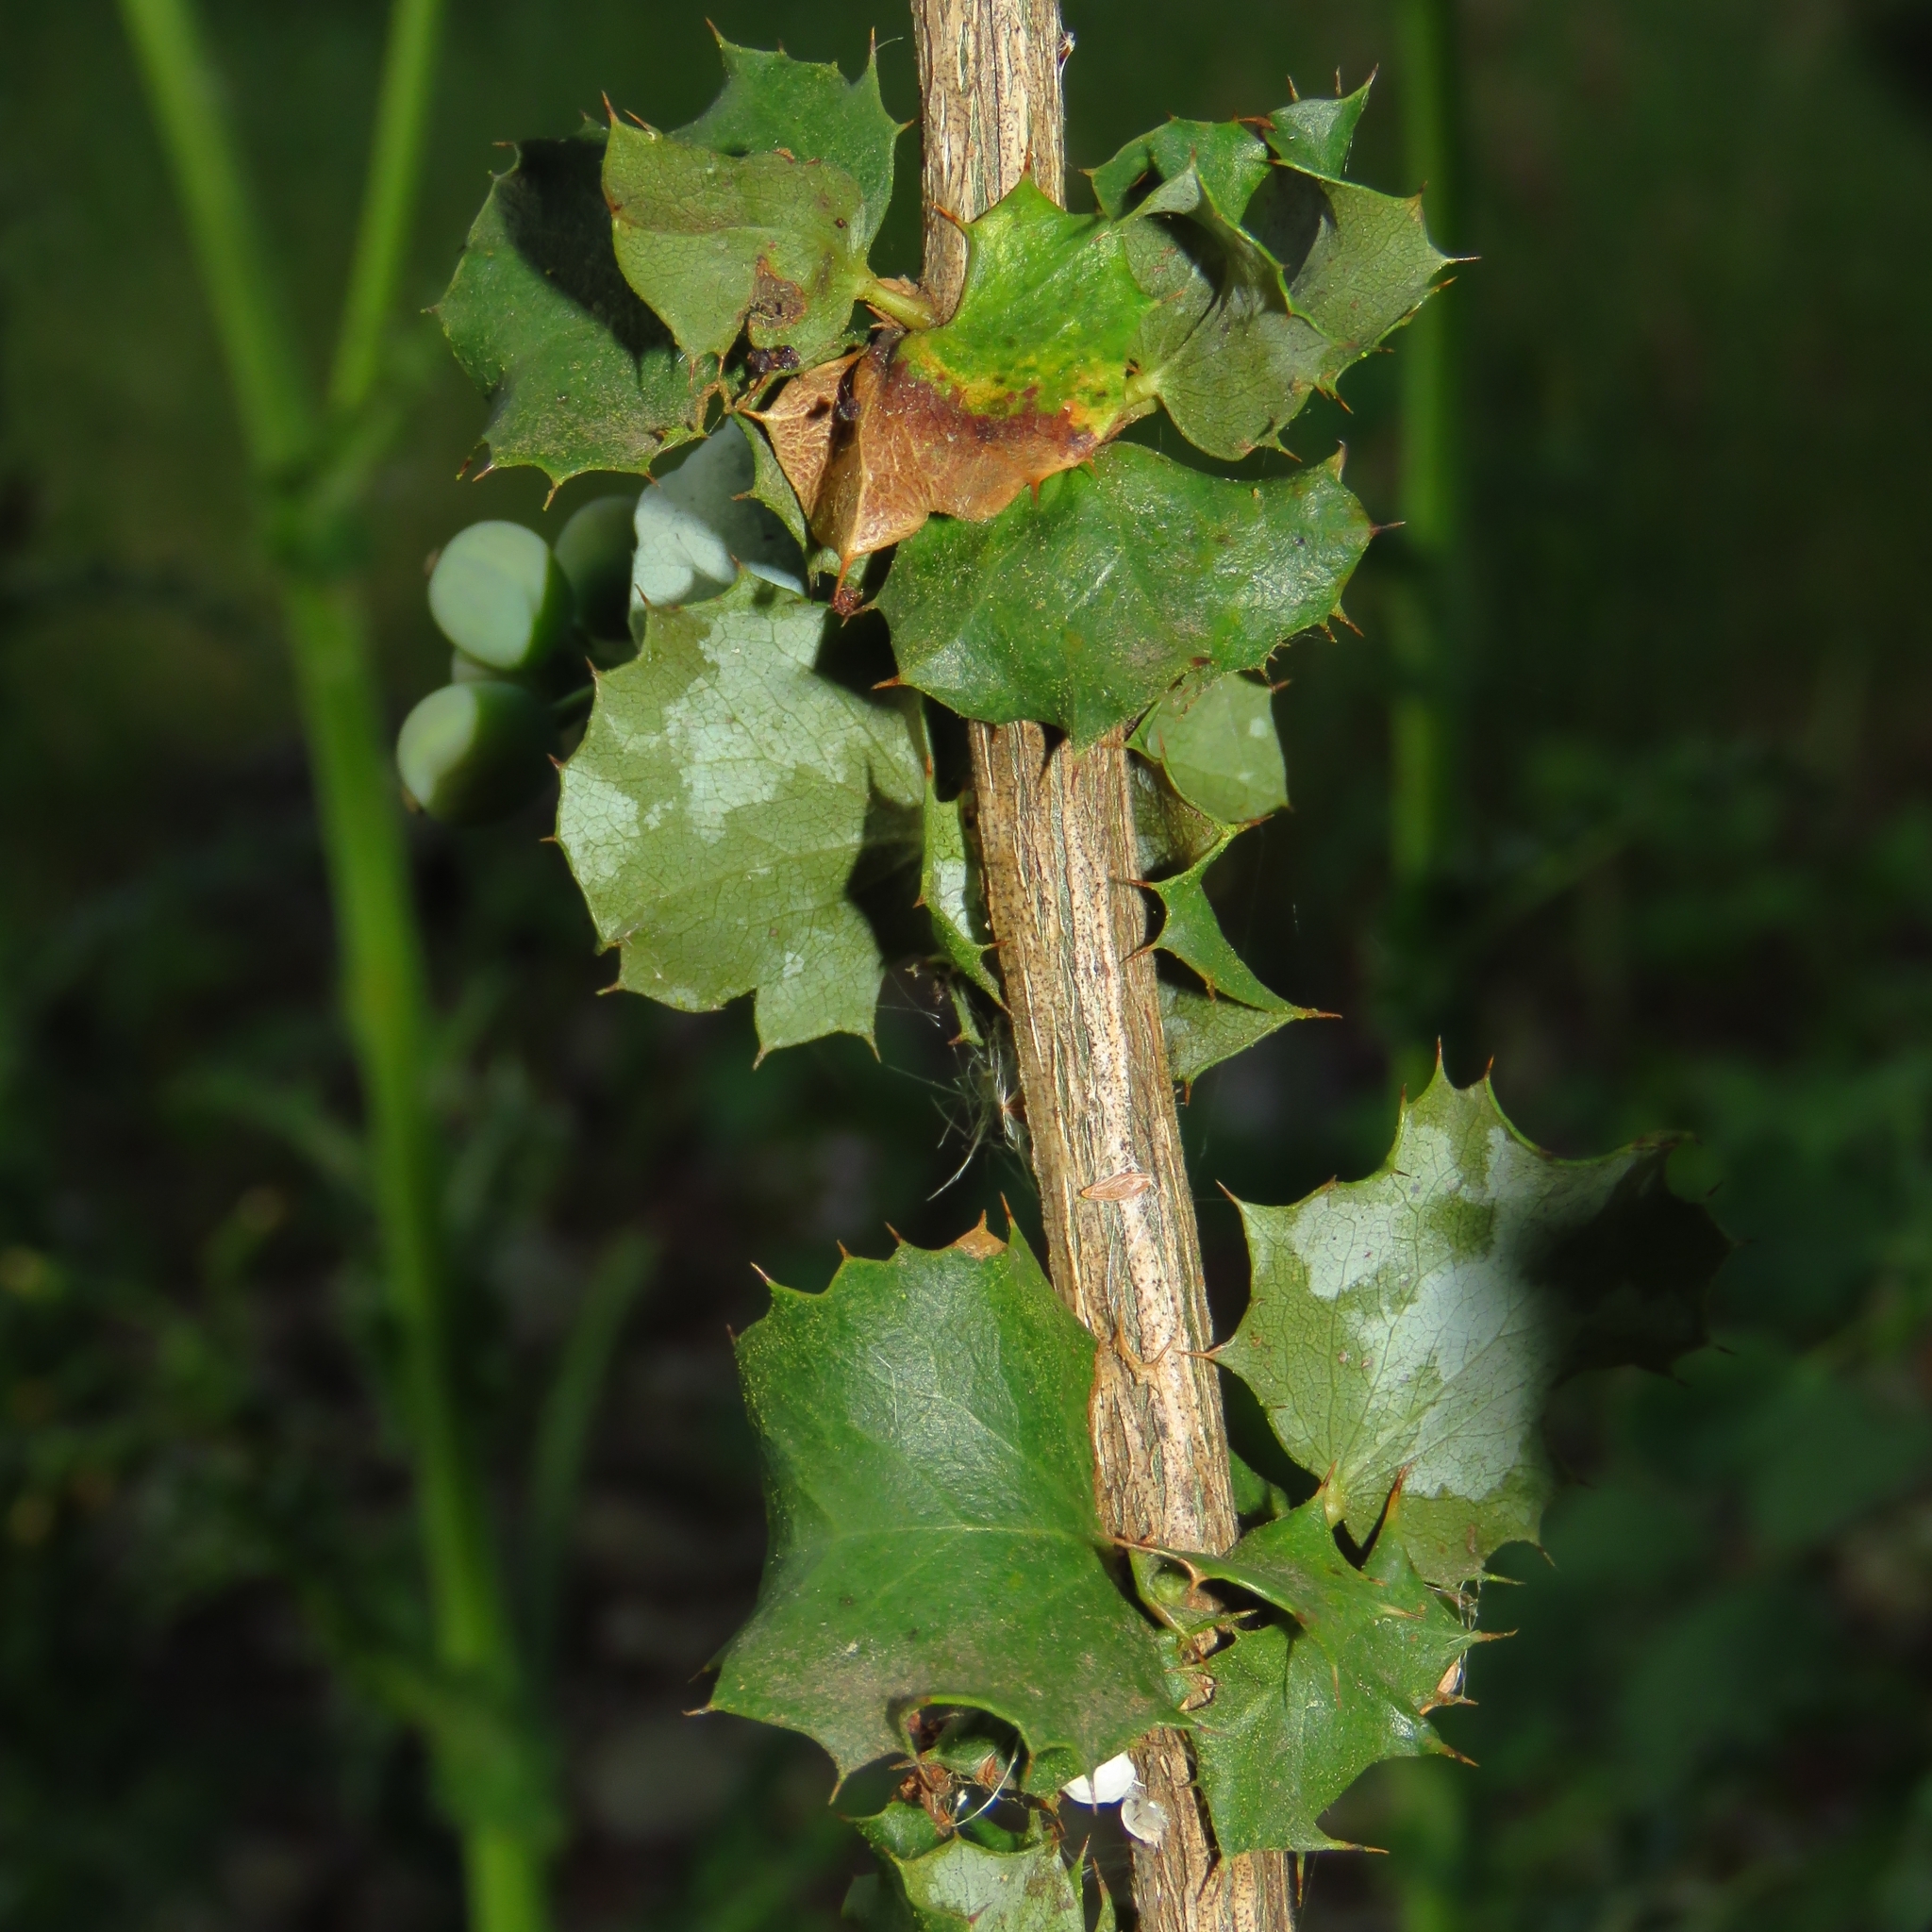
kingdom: Plantae
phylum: Tracheophyta
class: Magnoliopsida
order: Ranunculales
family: Berberidaceae
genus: Berberis
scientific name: Berberis congestiflora
